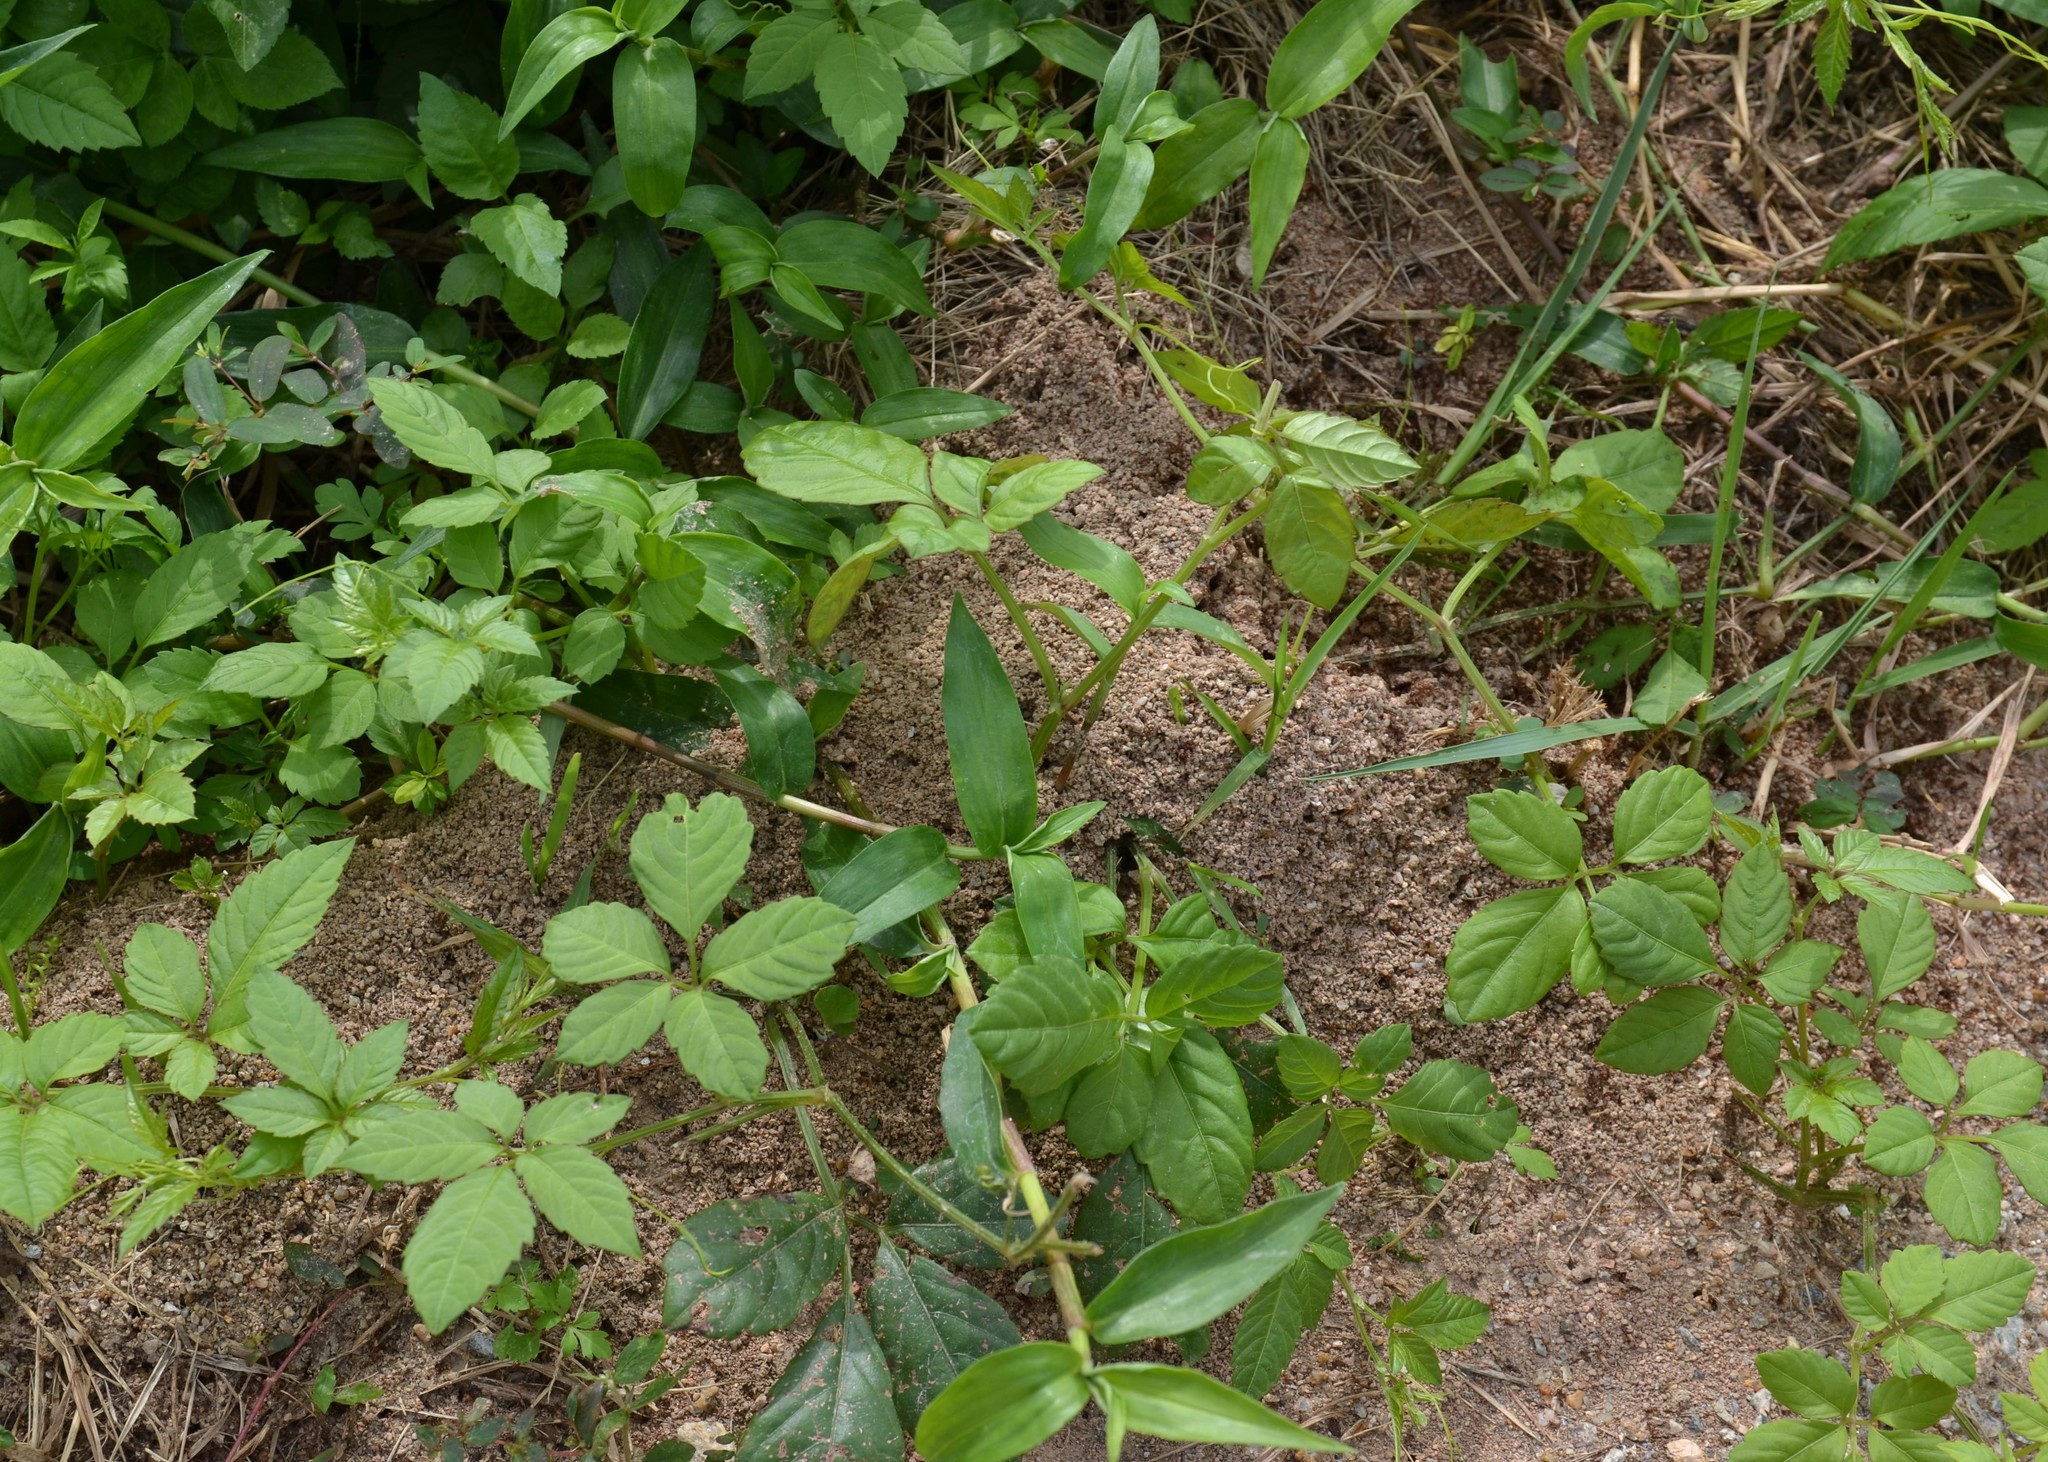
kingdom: Animalia
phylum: Arthropoda
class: Insecta
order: Hymenoptera
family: Formicidae
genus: Solenopsis
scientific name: Solenopsis invicta
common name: Red imported fire ant
